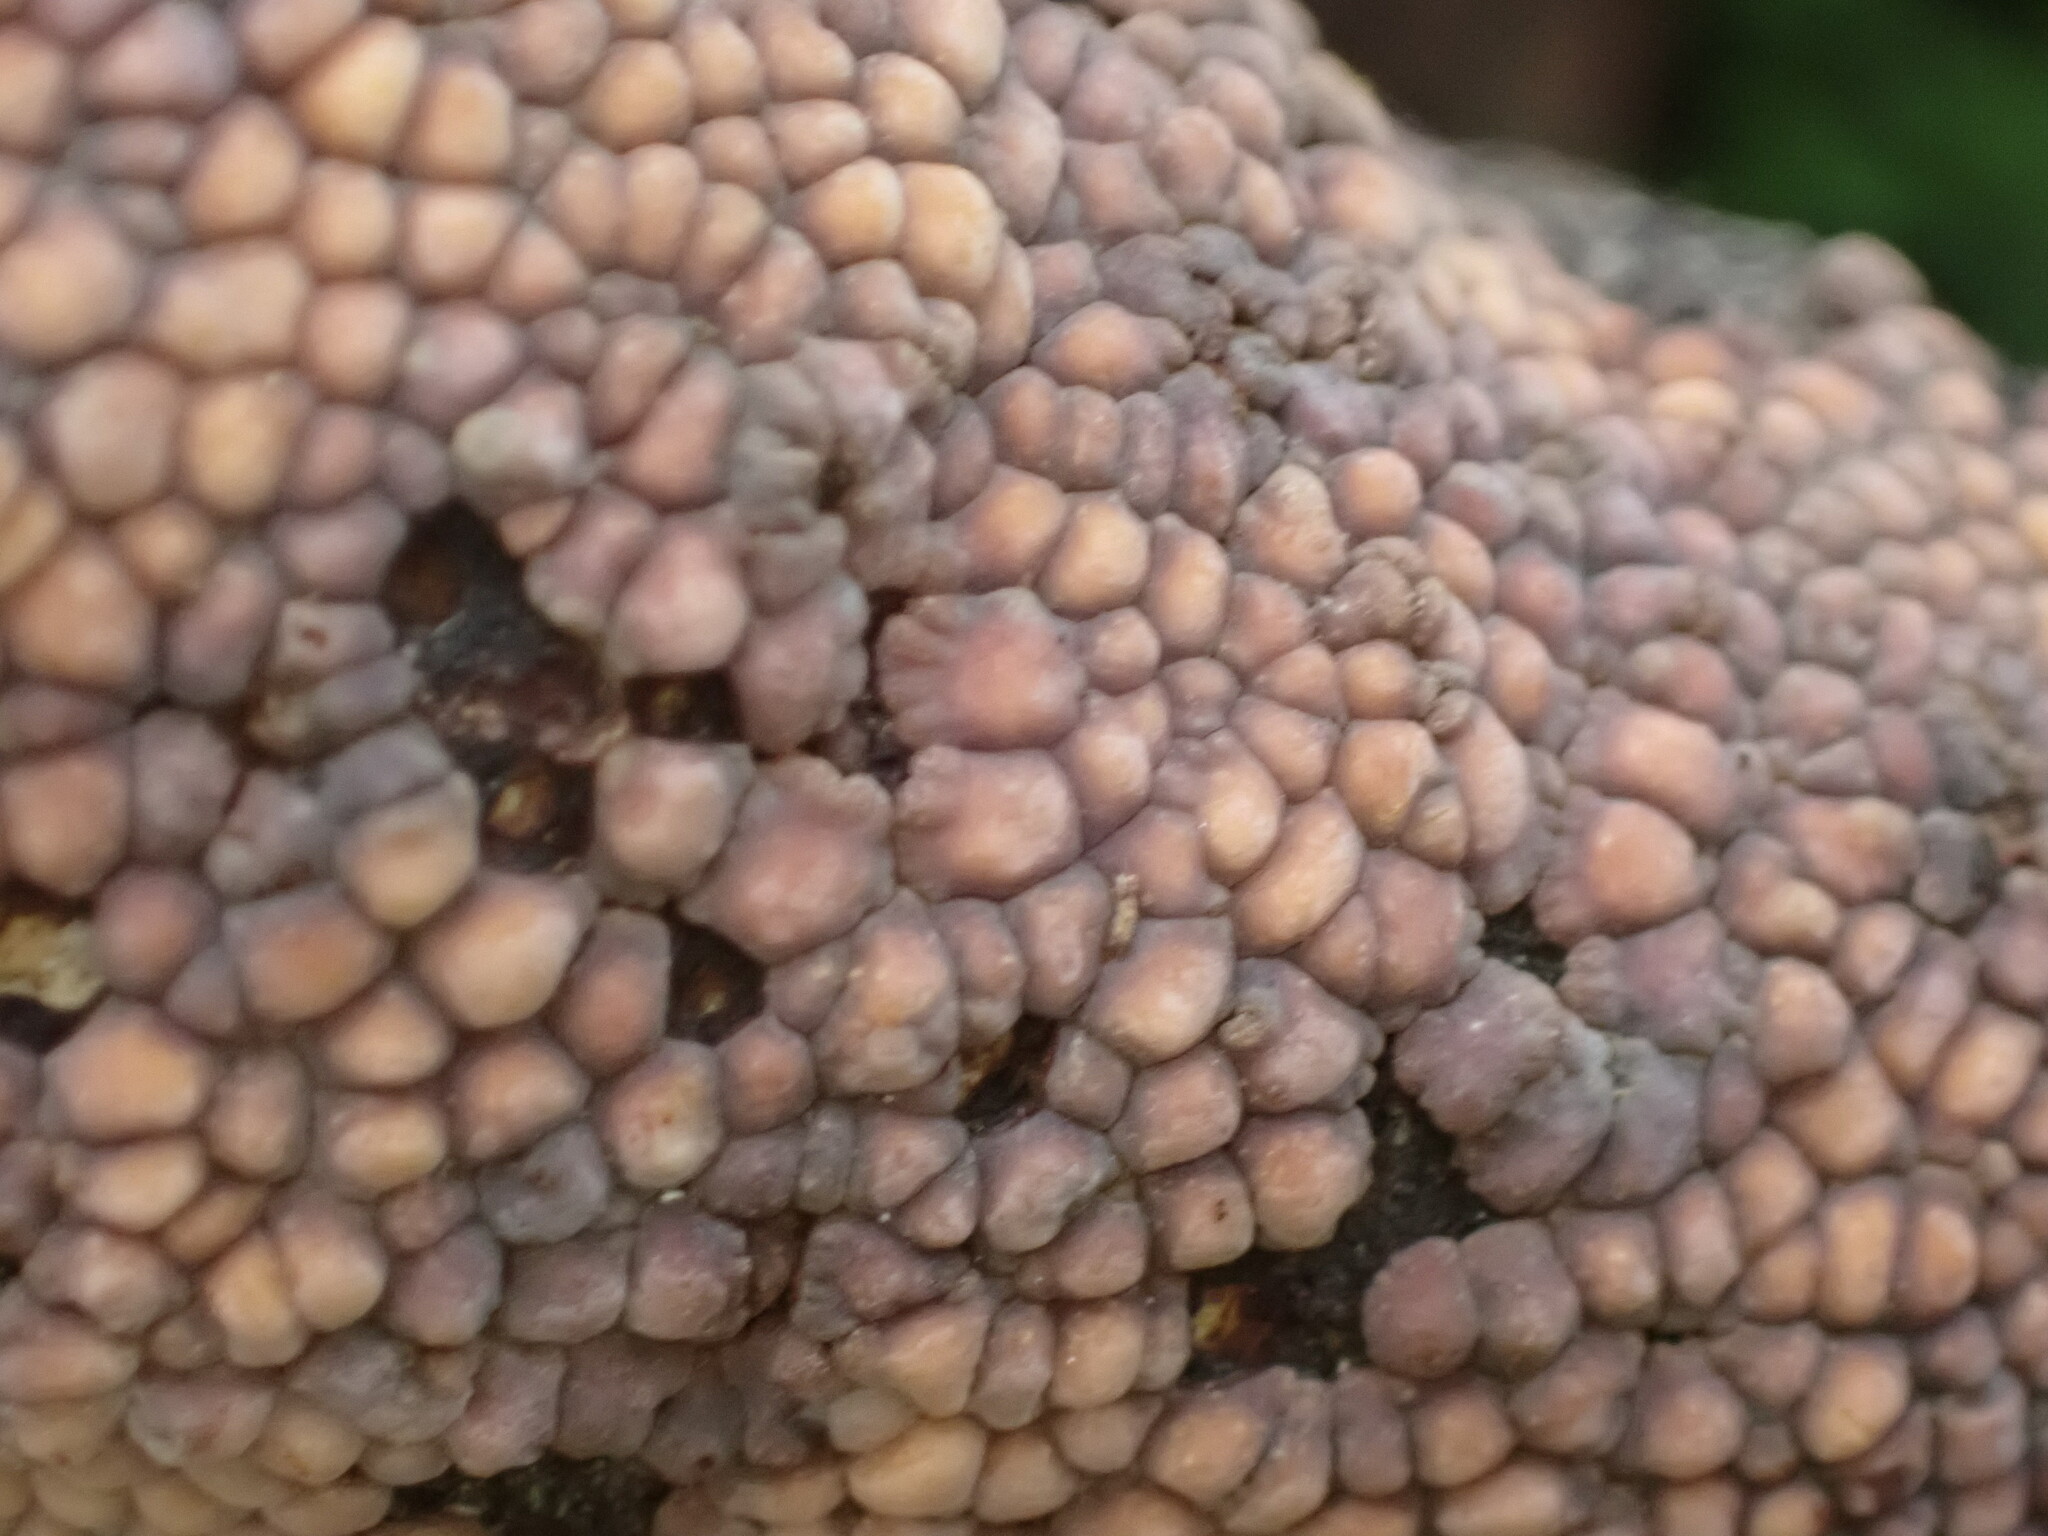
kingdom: Fungi
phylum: Basidiomycota
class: Agaricomycetes
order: Russulales
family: Stereaceae
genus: Aleurodiscus
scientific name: Aleurodiscus berggrenii
